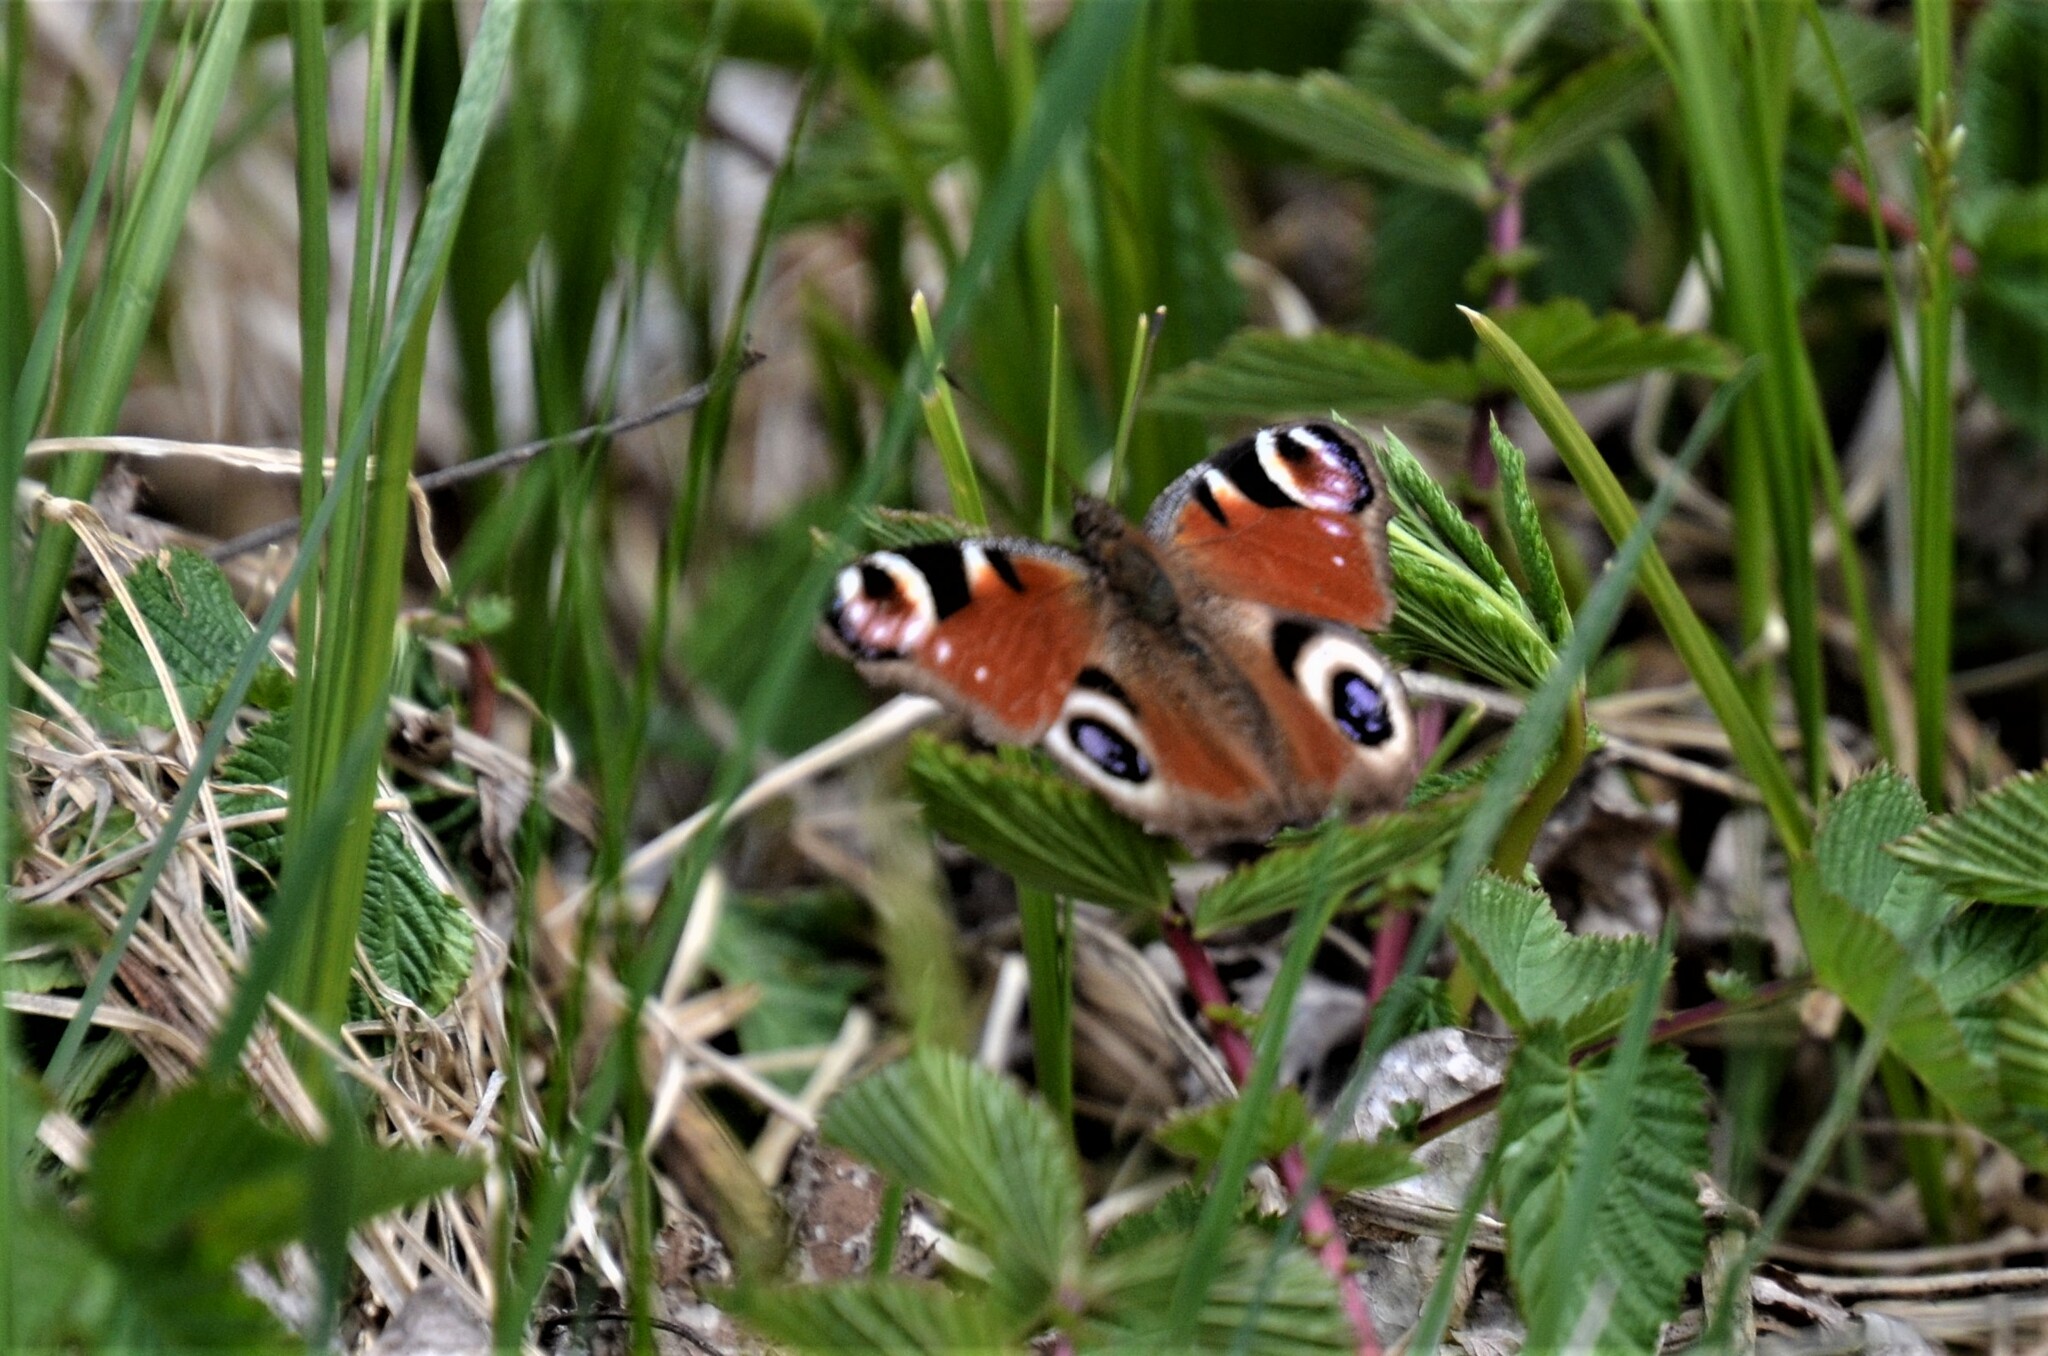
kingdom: Animalia
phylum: Arthropoda
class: Insecta
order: Lepidoptera
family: Nymphalidae
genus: Aglais
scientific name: Aglais io
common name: Peacock
